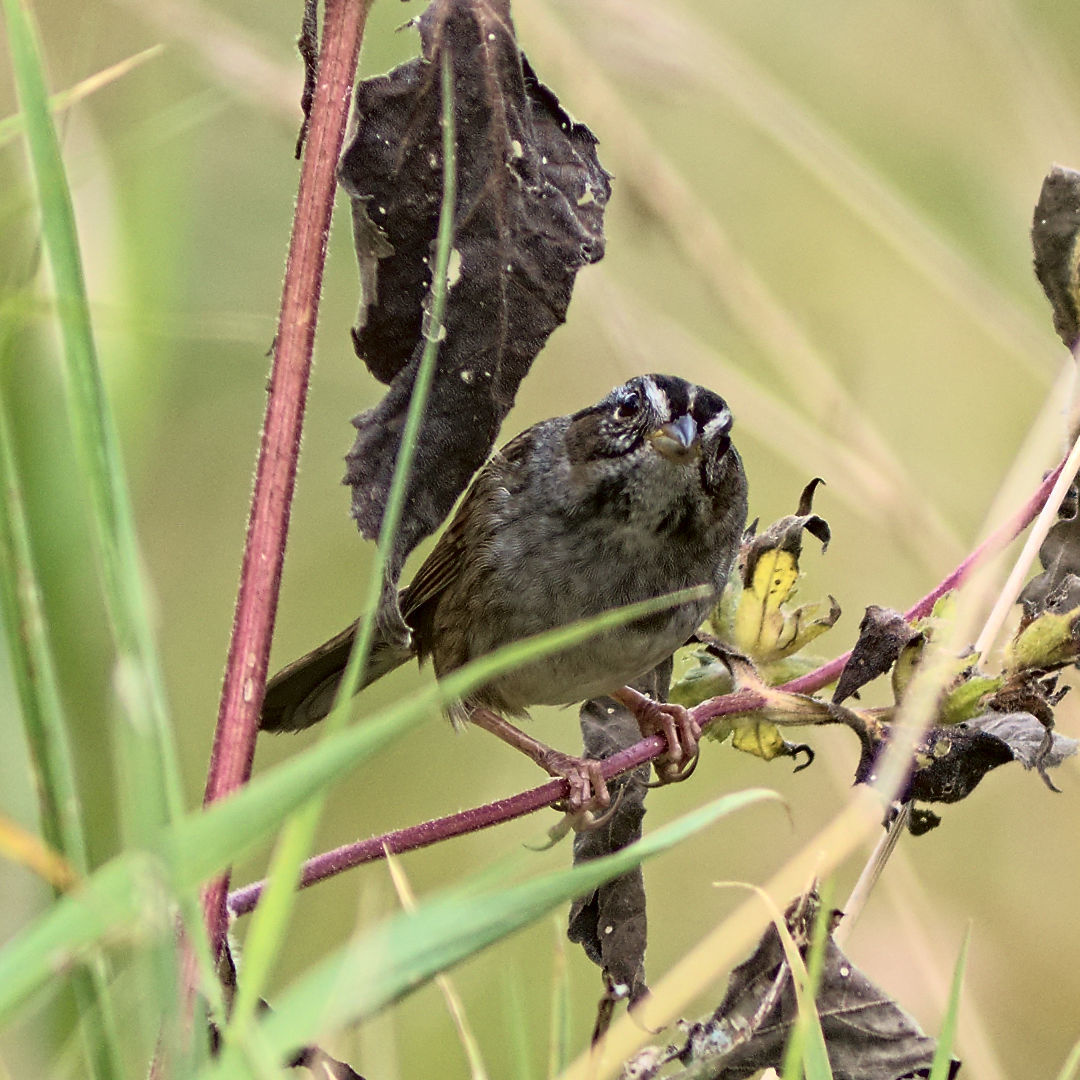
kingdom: Animalia
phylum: Chordata
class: Aves
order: Passeriformes
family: Passerellidae
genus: Melospiza
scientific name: Melospiza georgiana
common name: Swamp sparrow
